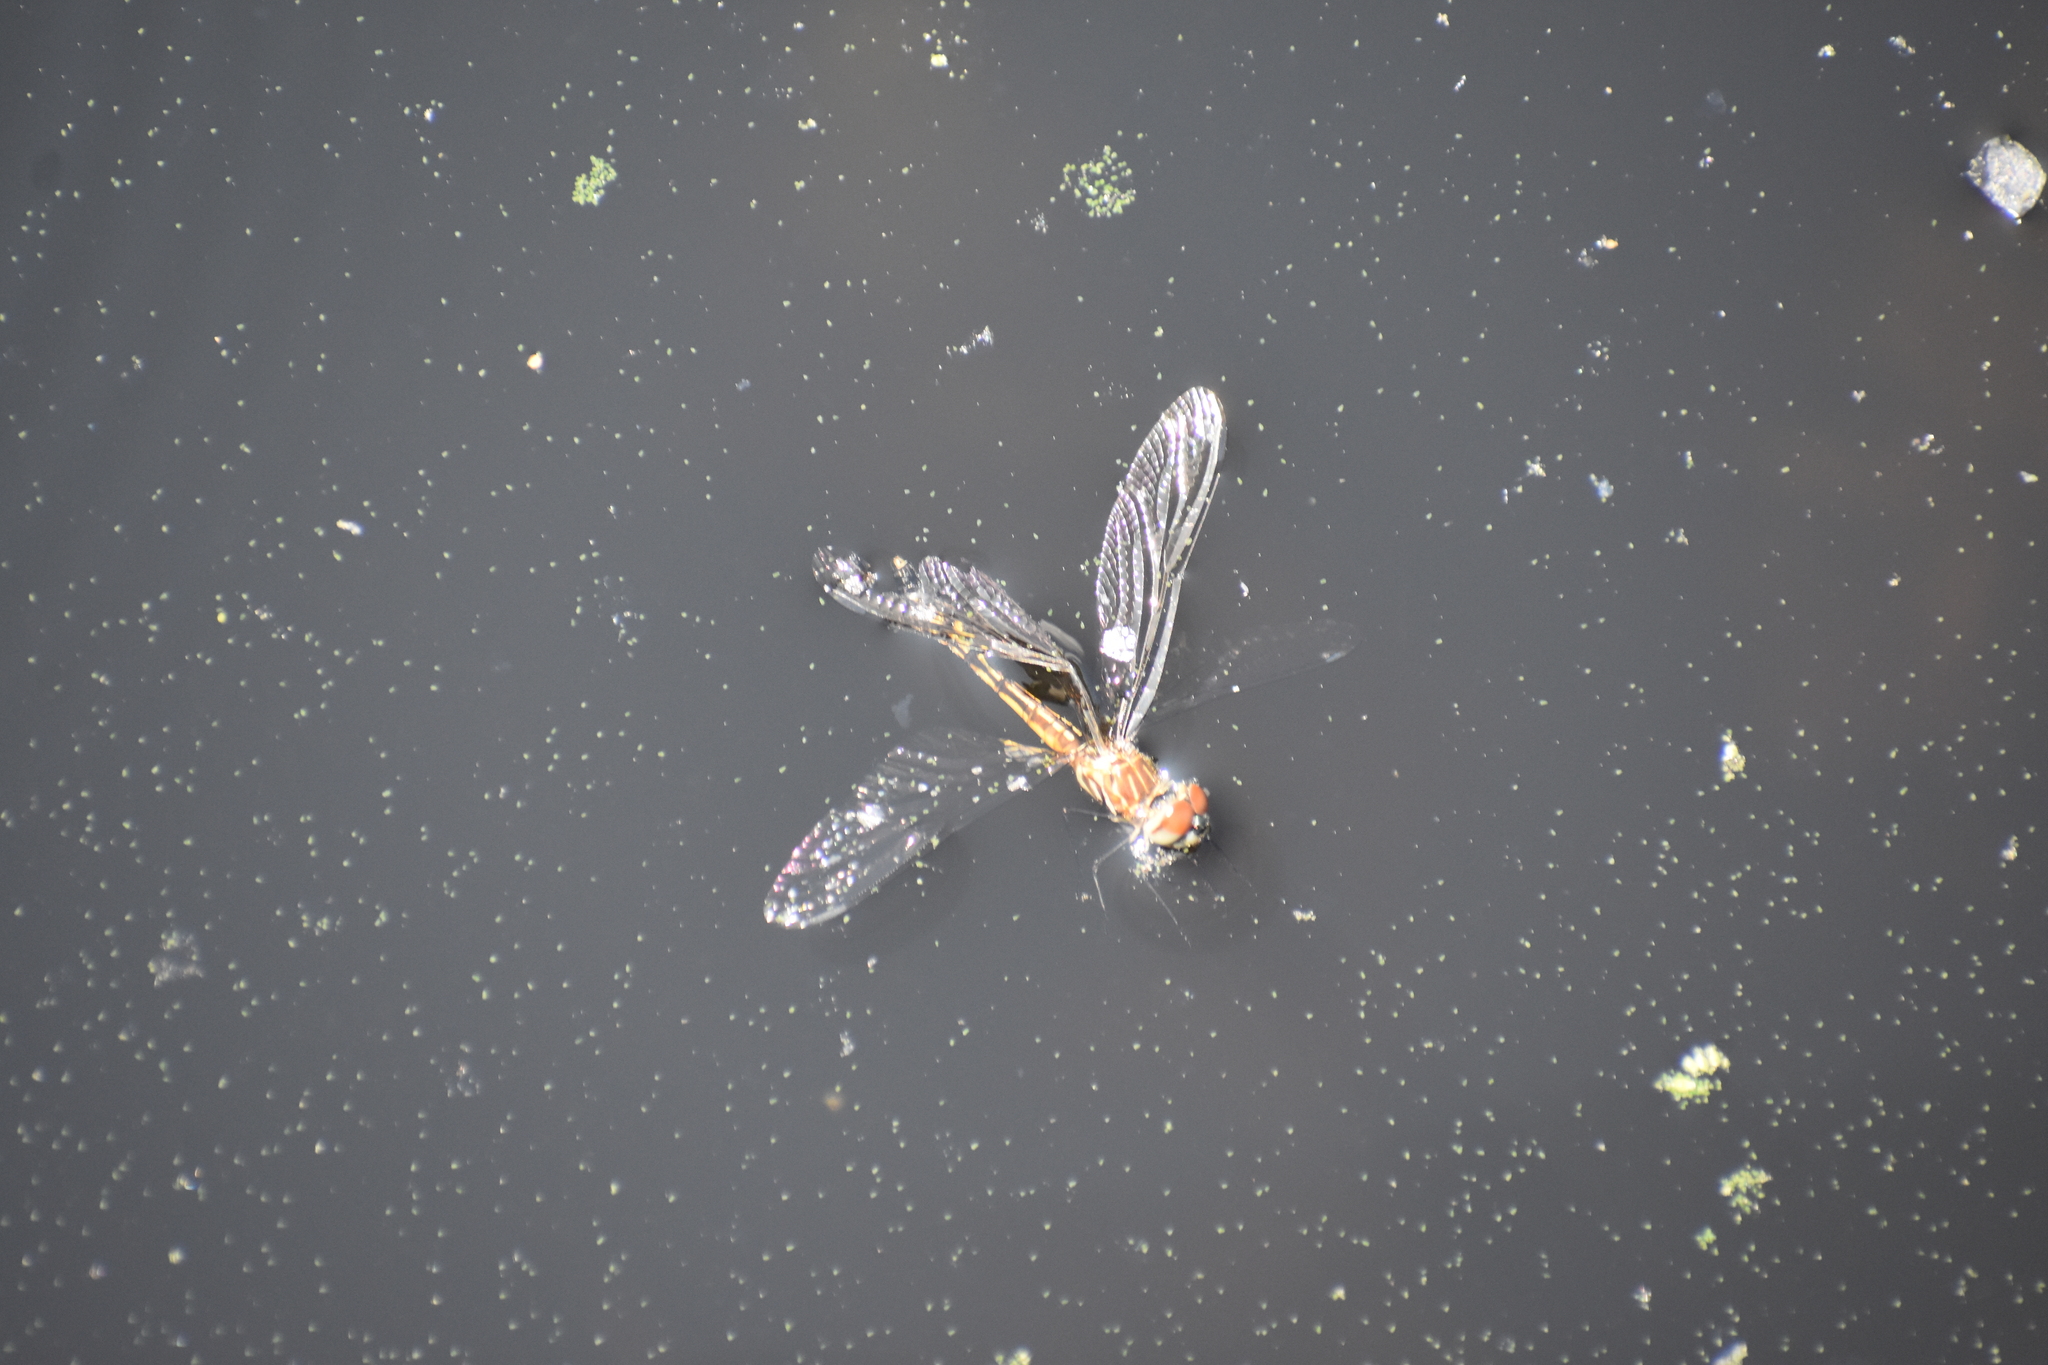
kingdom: Animalia
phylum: Arthropoda
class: Insecta
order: Odonata
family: Libellulidae
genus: Pachydiplax
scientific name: Pachydiplax longipennis
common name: Blue dasher
